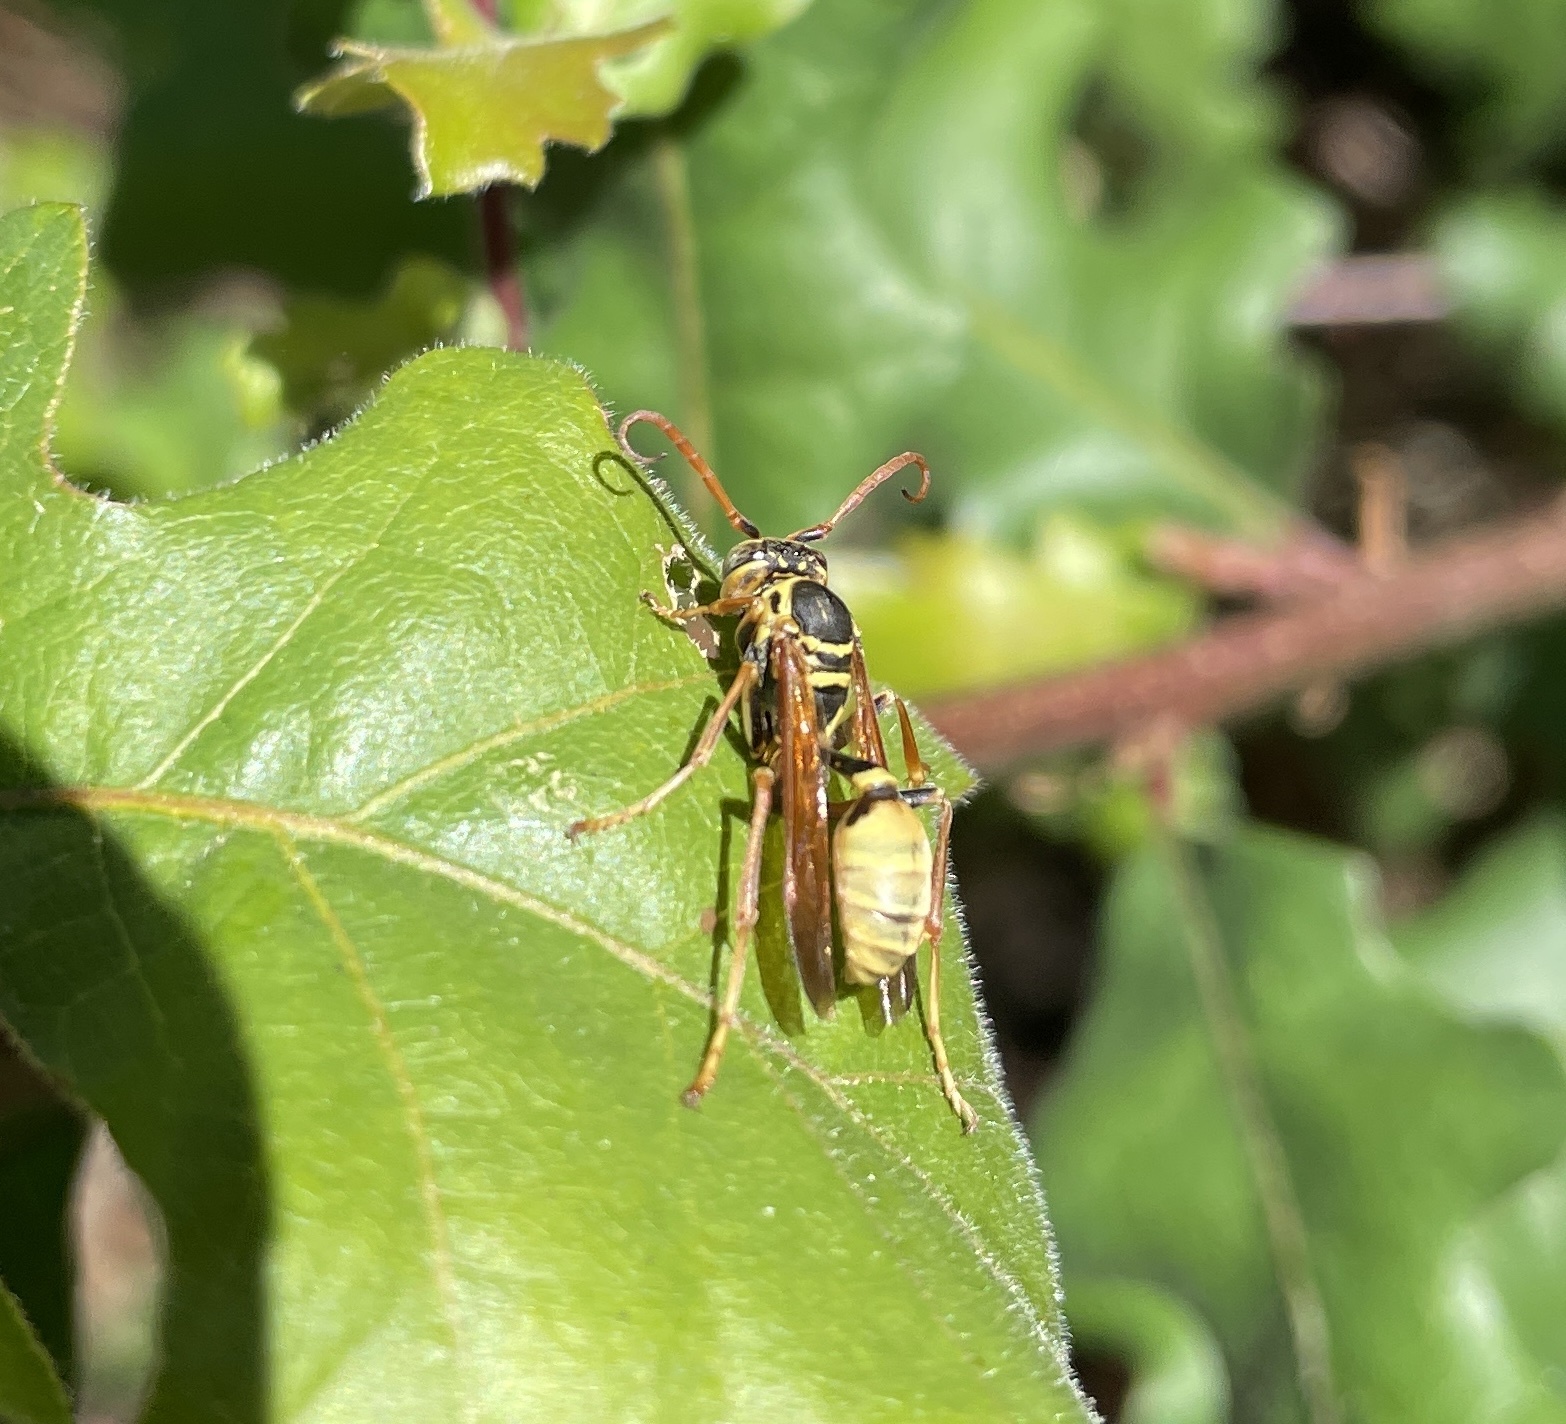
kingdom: Animalia
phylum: Arthropoda
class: Insecta
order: Hymenoptera
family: Vespidae
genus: Mischocyttarus
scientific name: Mischocyttarus flavitarsis
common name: Wasp
